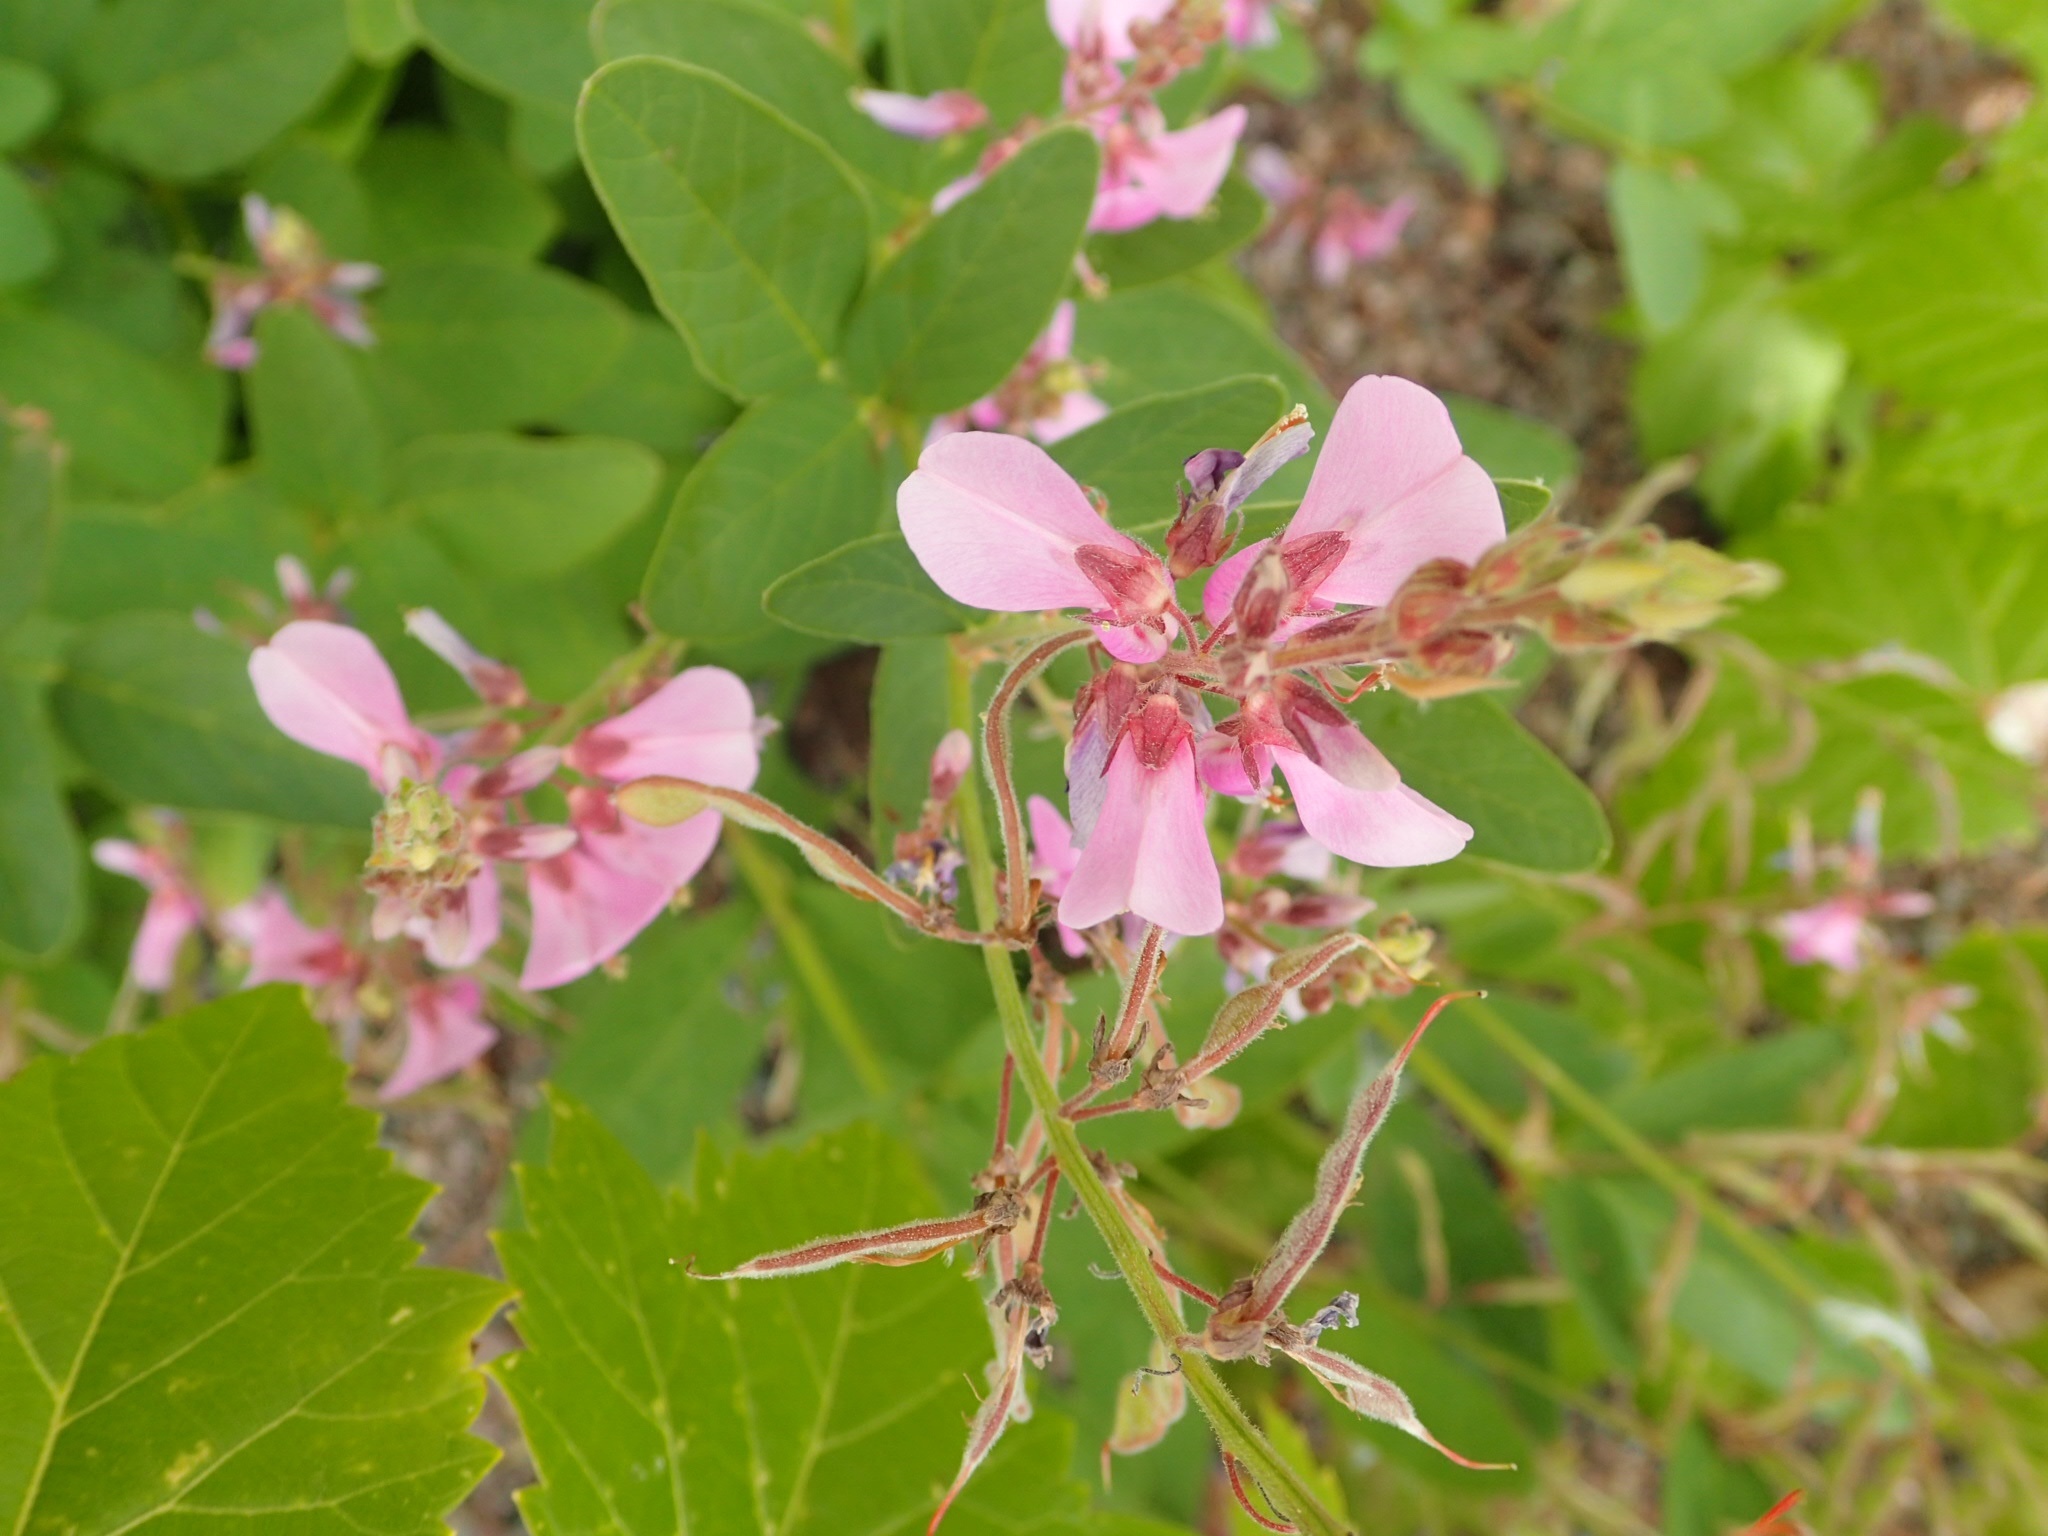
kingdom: Plantae
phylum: Tracheophyta
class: Magnoliopsida
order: Fabales
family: Fabaceae
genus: Desmodium
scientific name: Desmodium canadense
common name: Canada tick-trefoil
